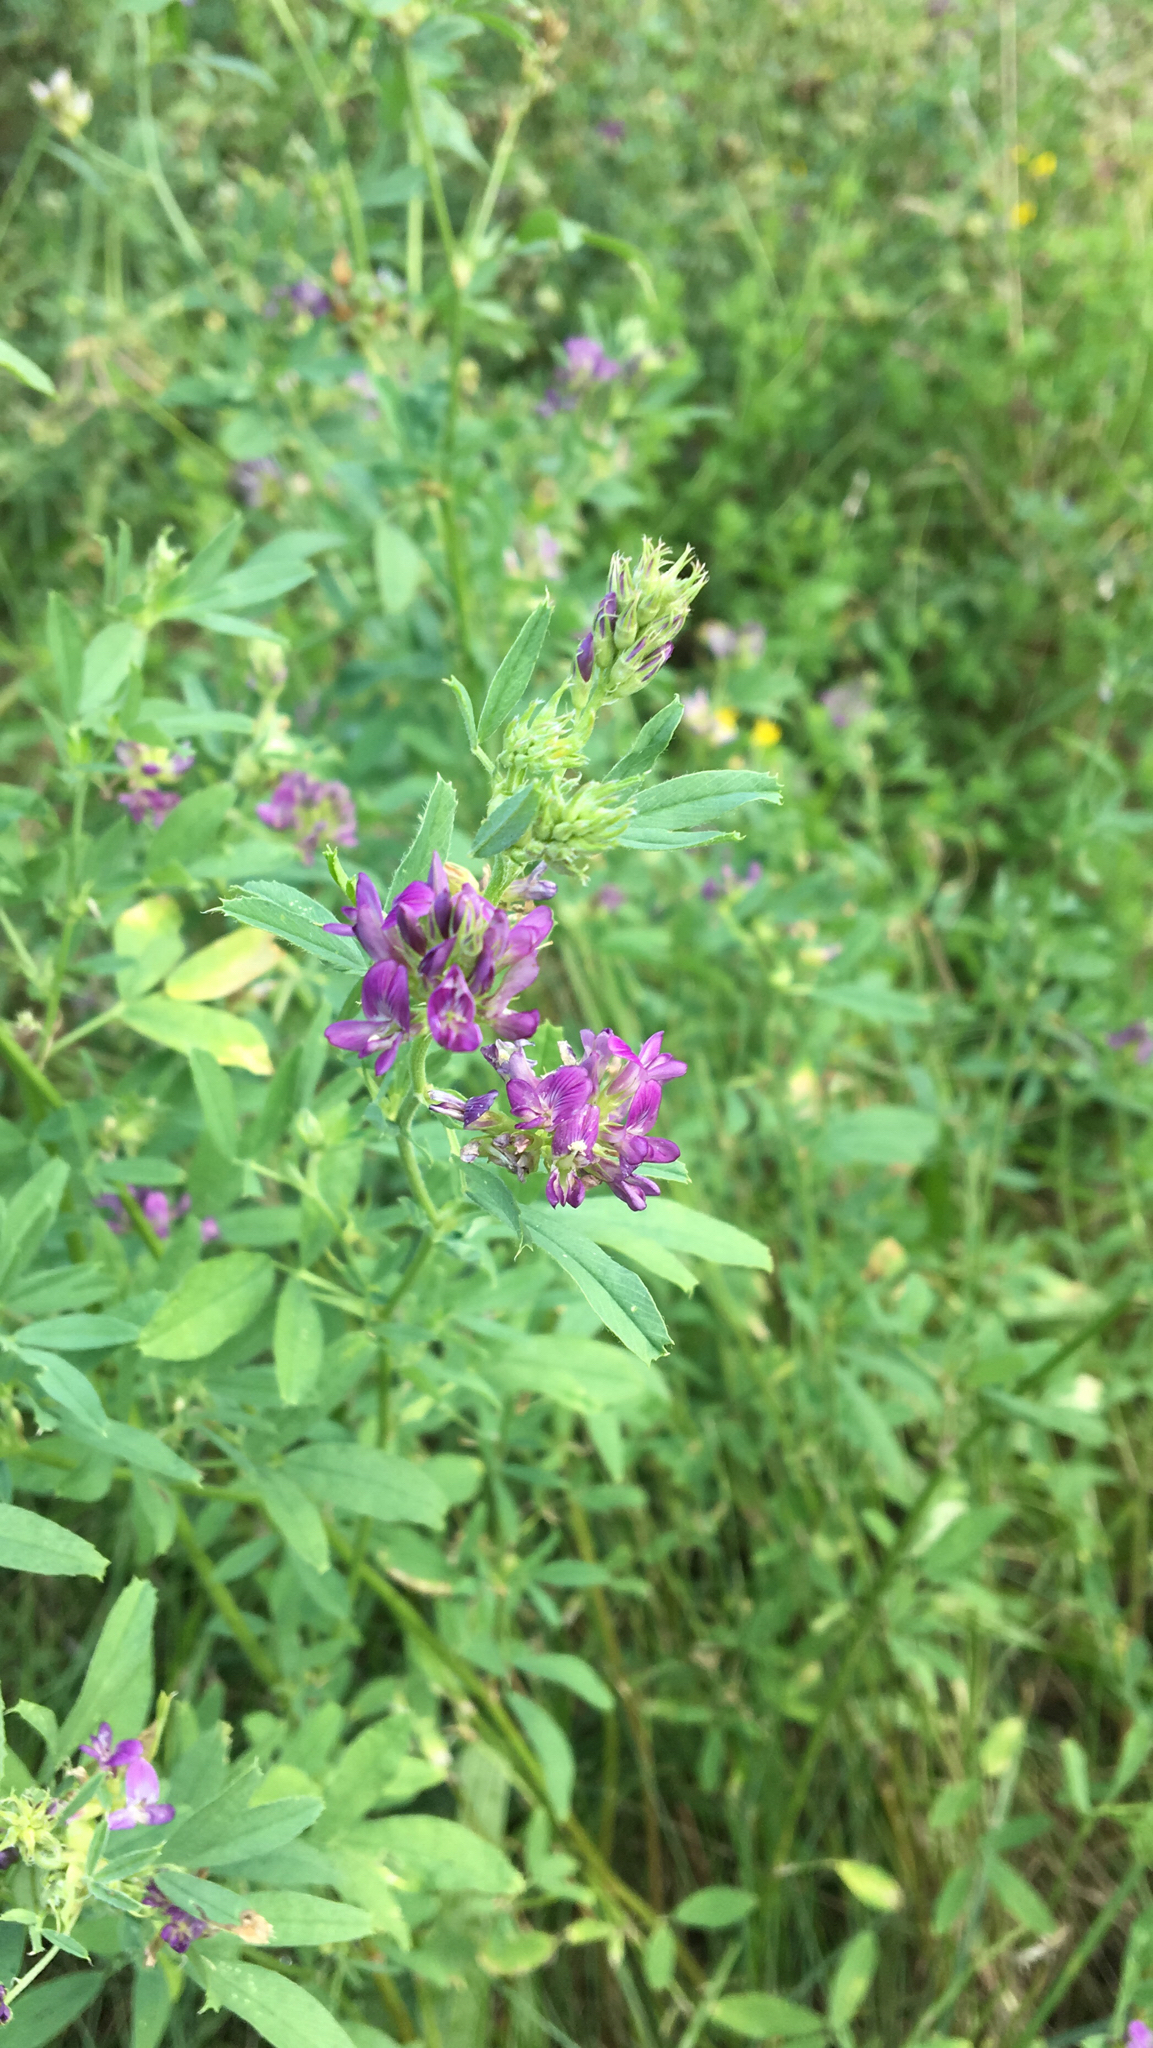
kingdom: Plantae
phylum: Tracheophyta
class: Magnoliopsida
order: Fabales
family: Fabaceae
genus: Medicago
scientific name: Medicago sativa
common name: Alfalfa
